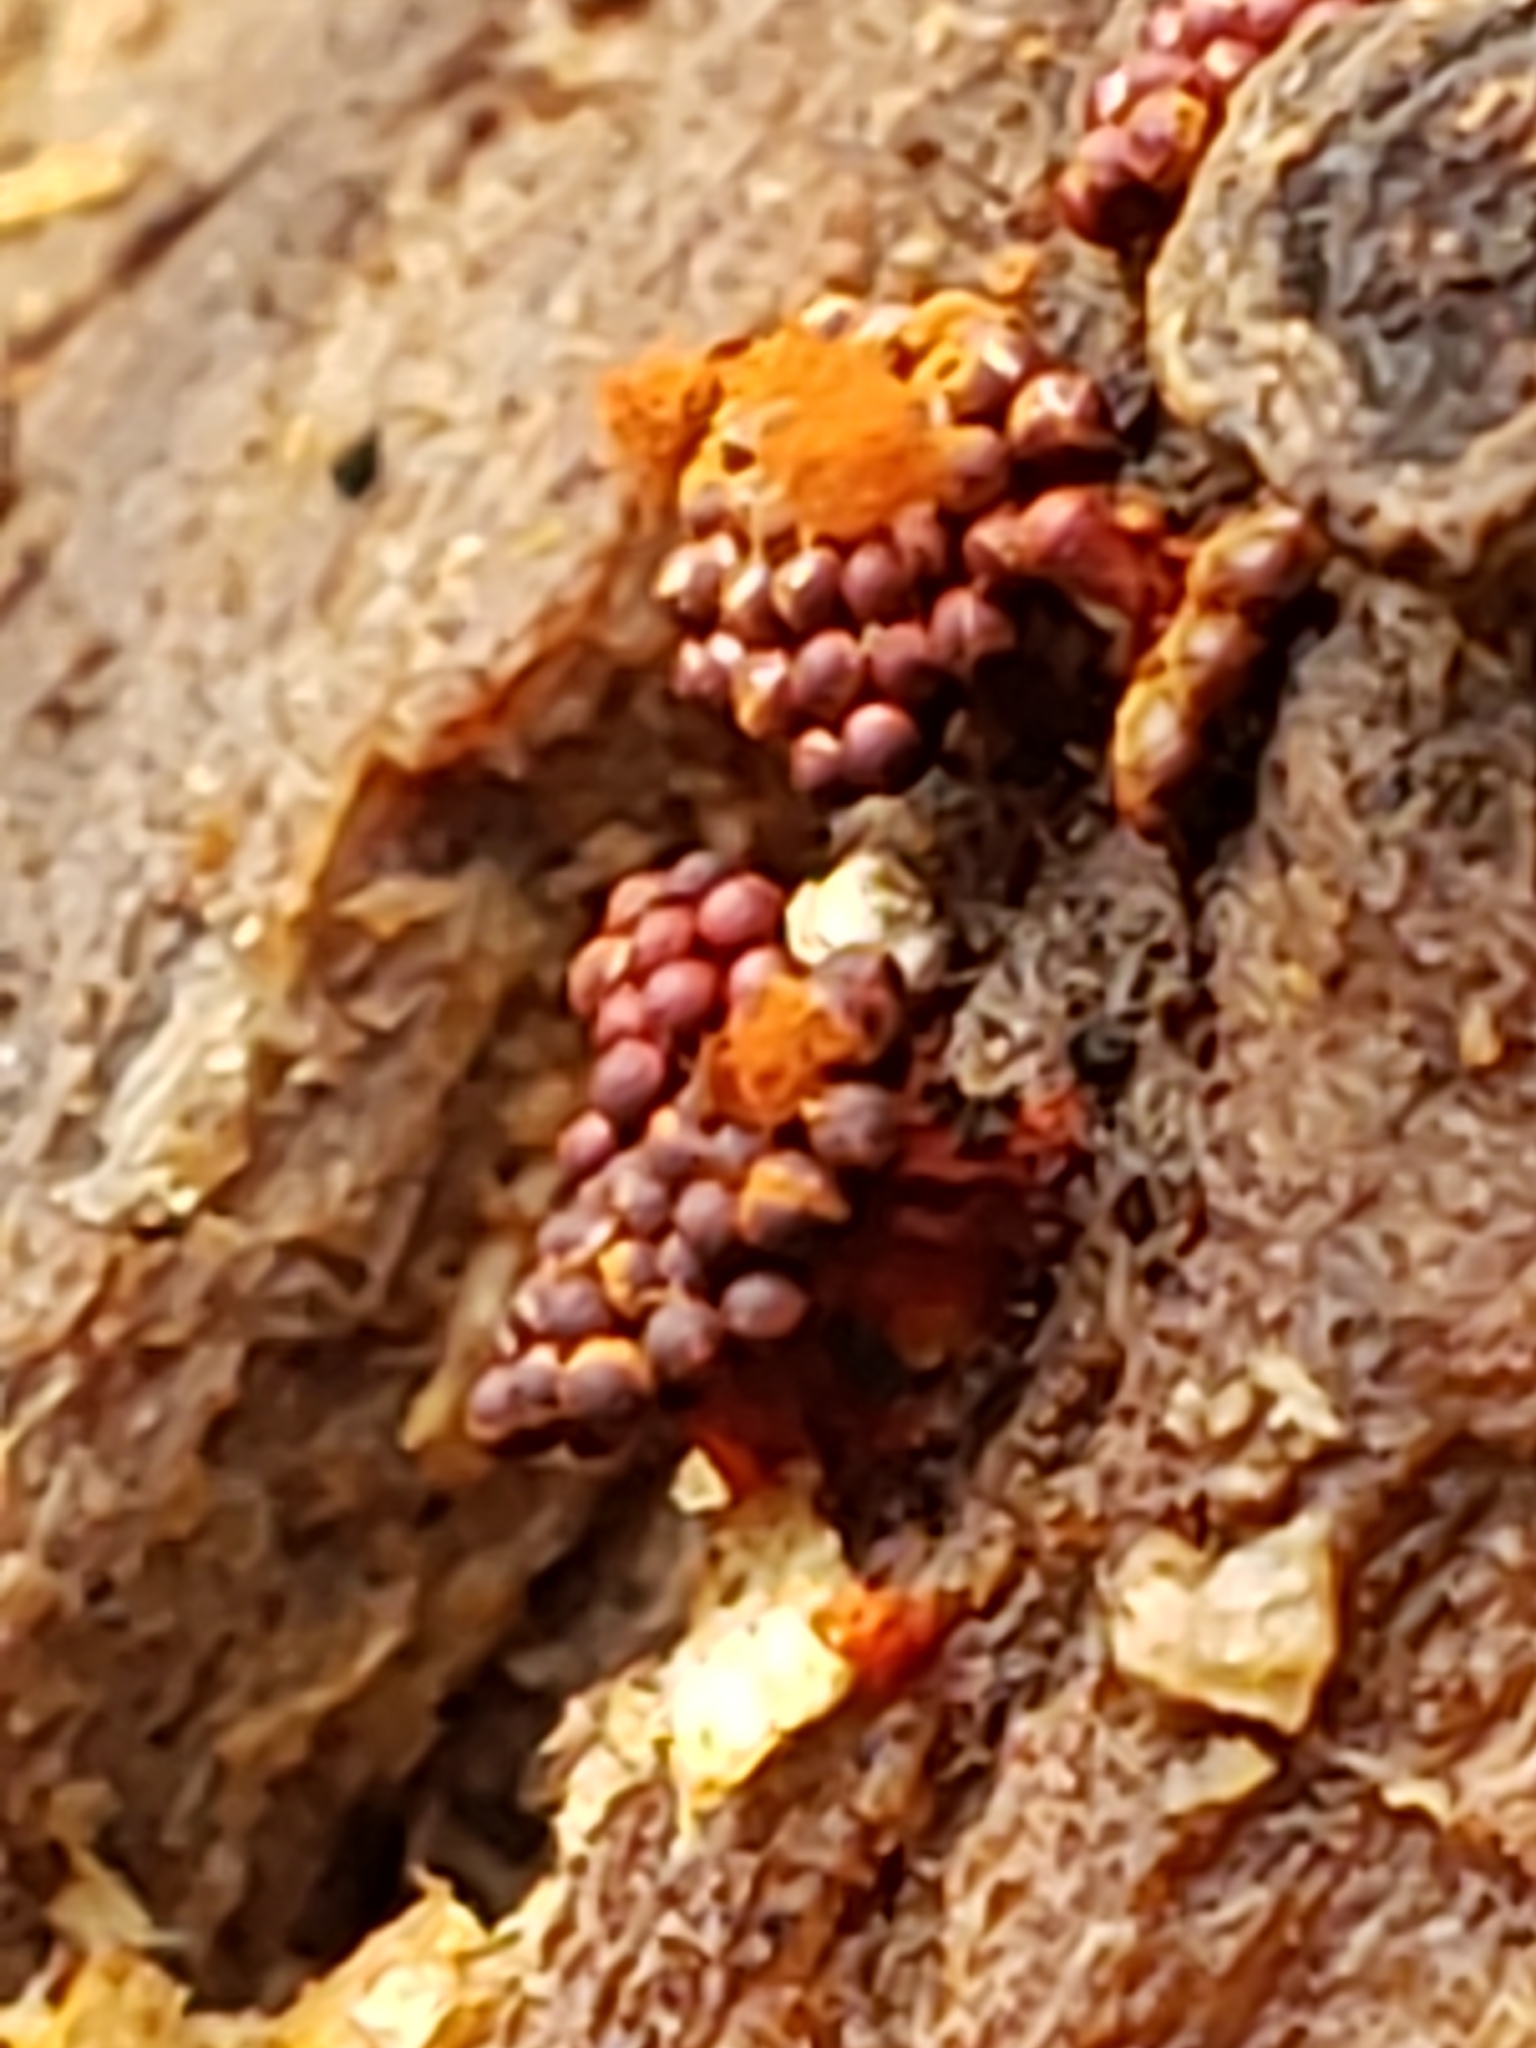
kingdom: Protozoa
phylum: Mycetozoa
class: Myxomycetes
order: Trichiales
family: Trichiaceae
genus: Metatrichia
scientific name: Metatrichia vesparia
